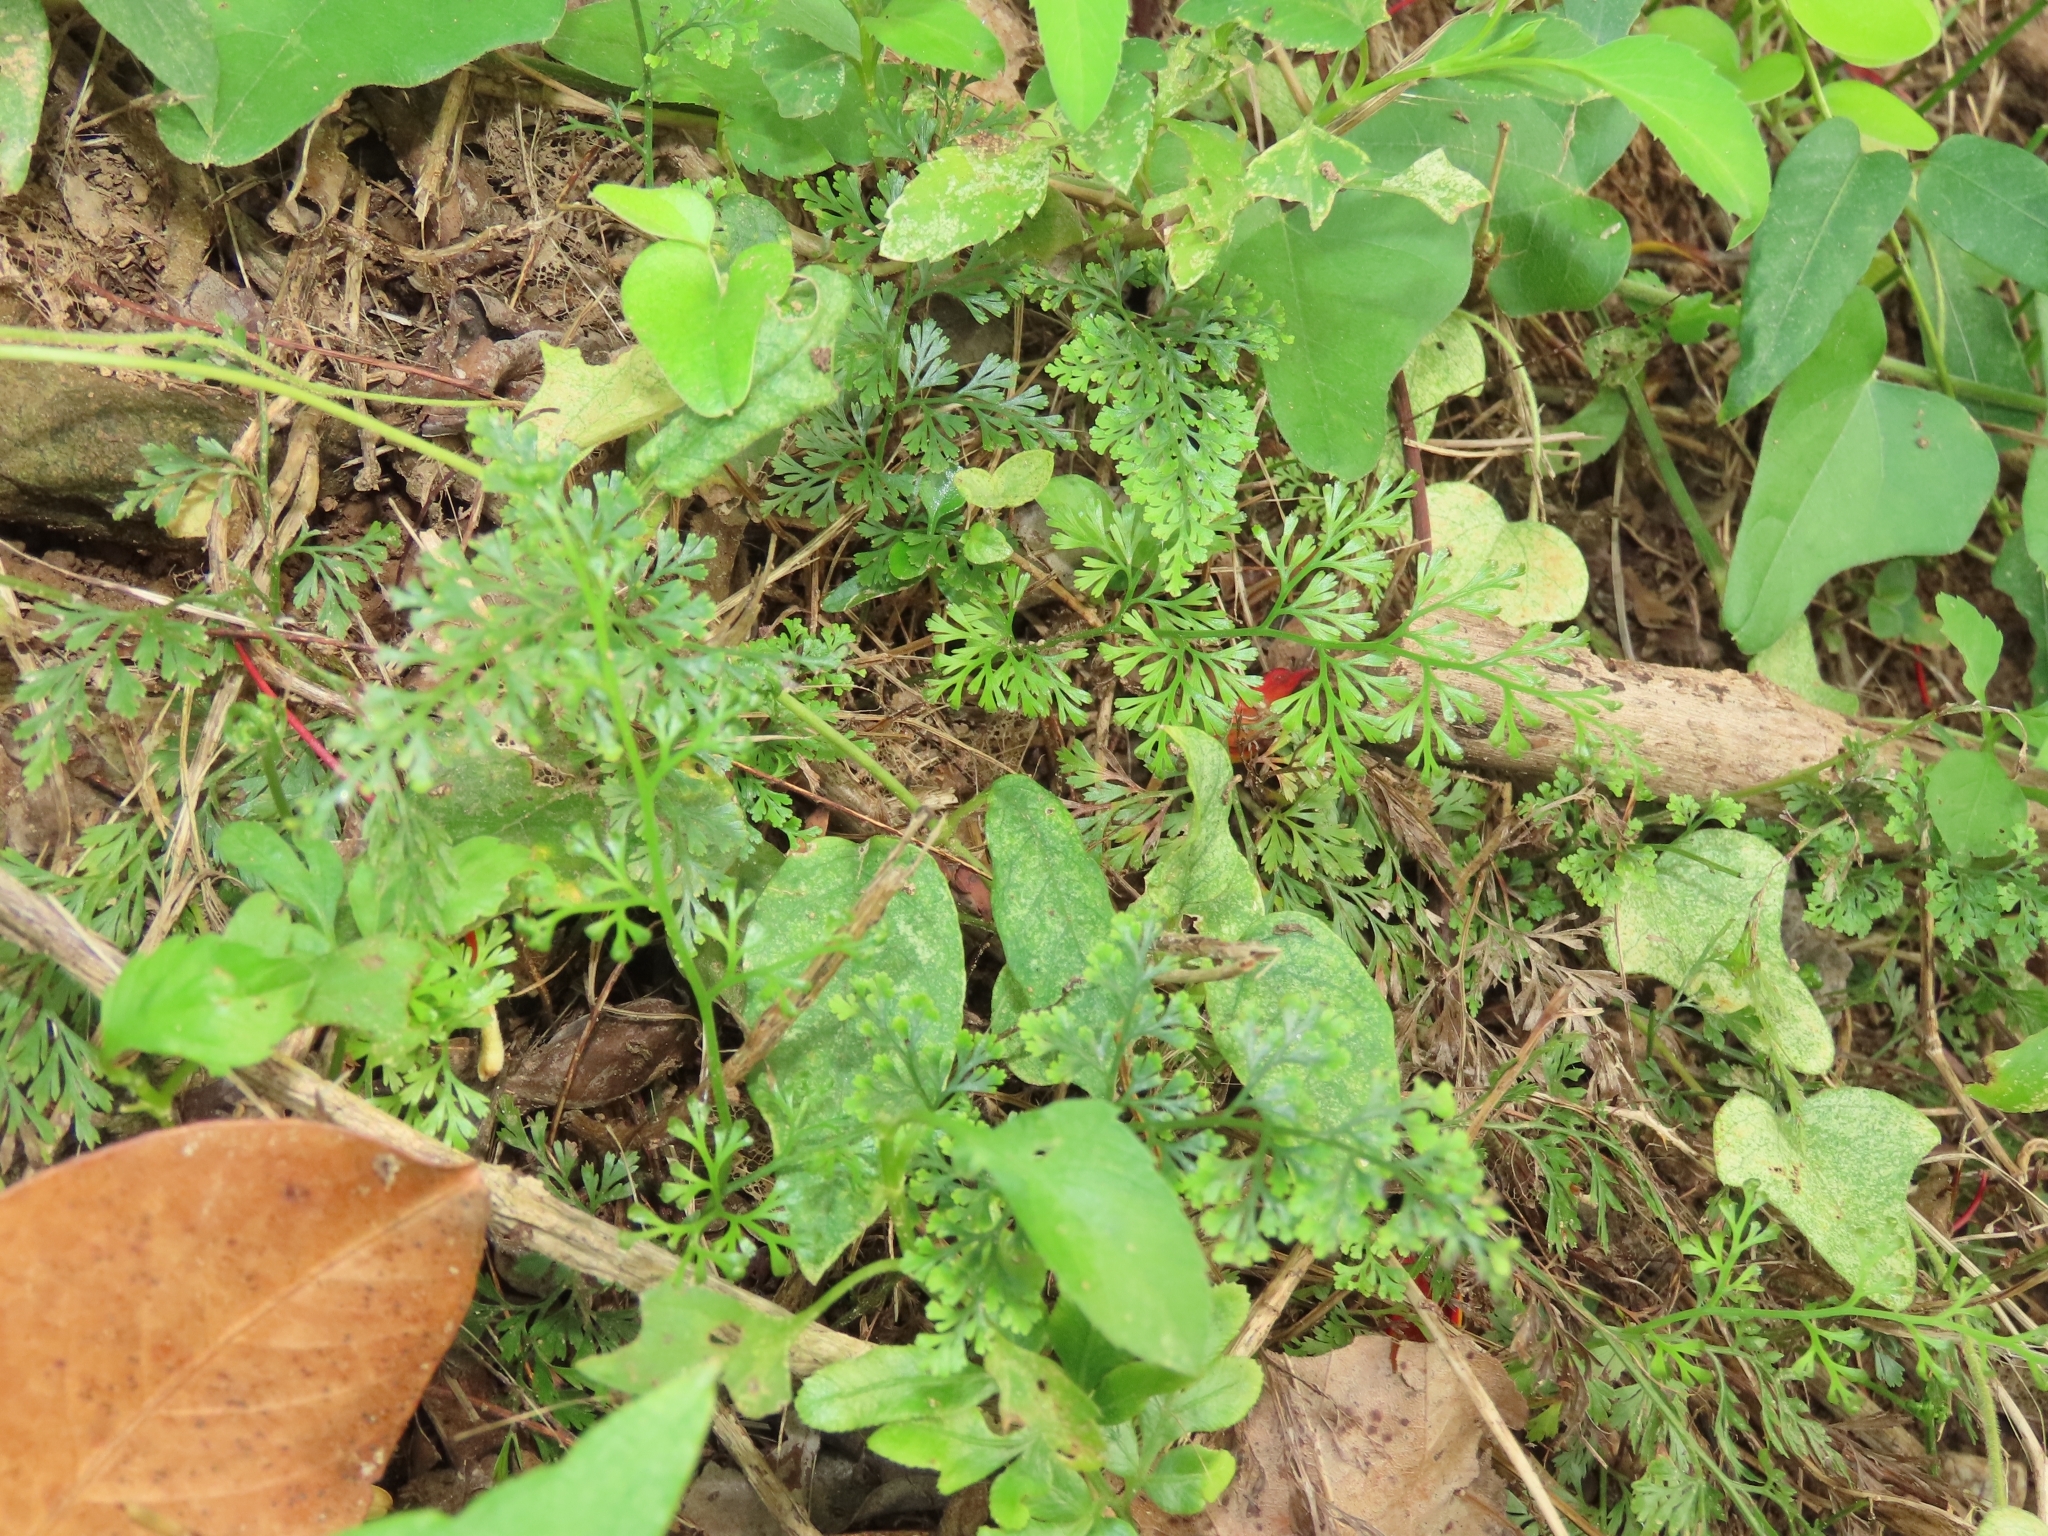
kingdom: Plantae
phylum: Tracheophyta
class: Polypodiopsida
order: Polypodiales
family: Lindsaeaceae
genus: Odontosoria
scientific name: Odontosoria chinensis
